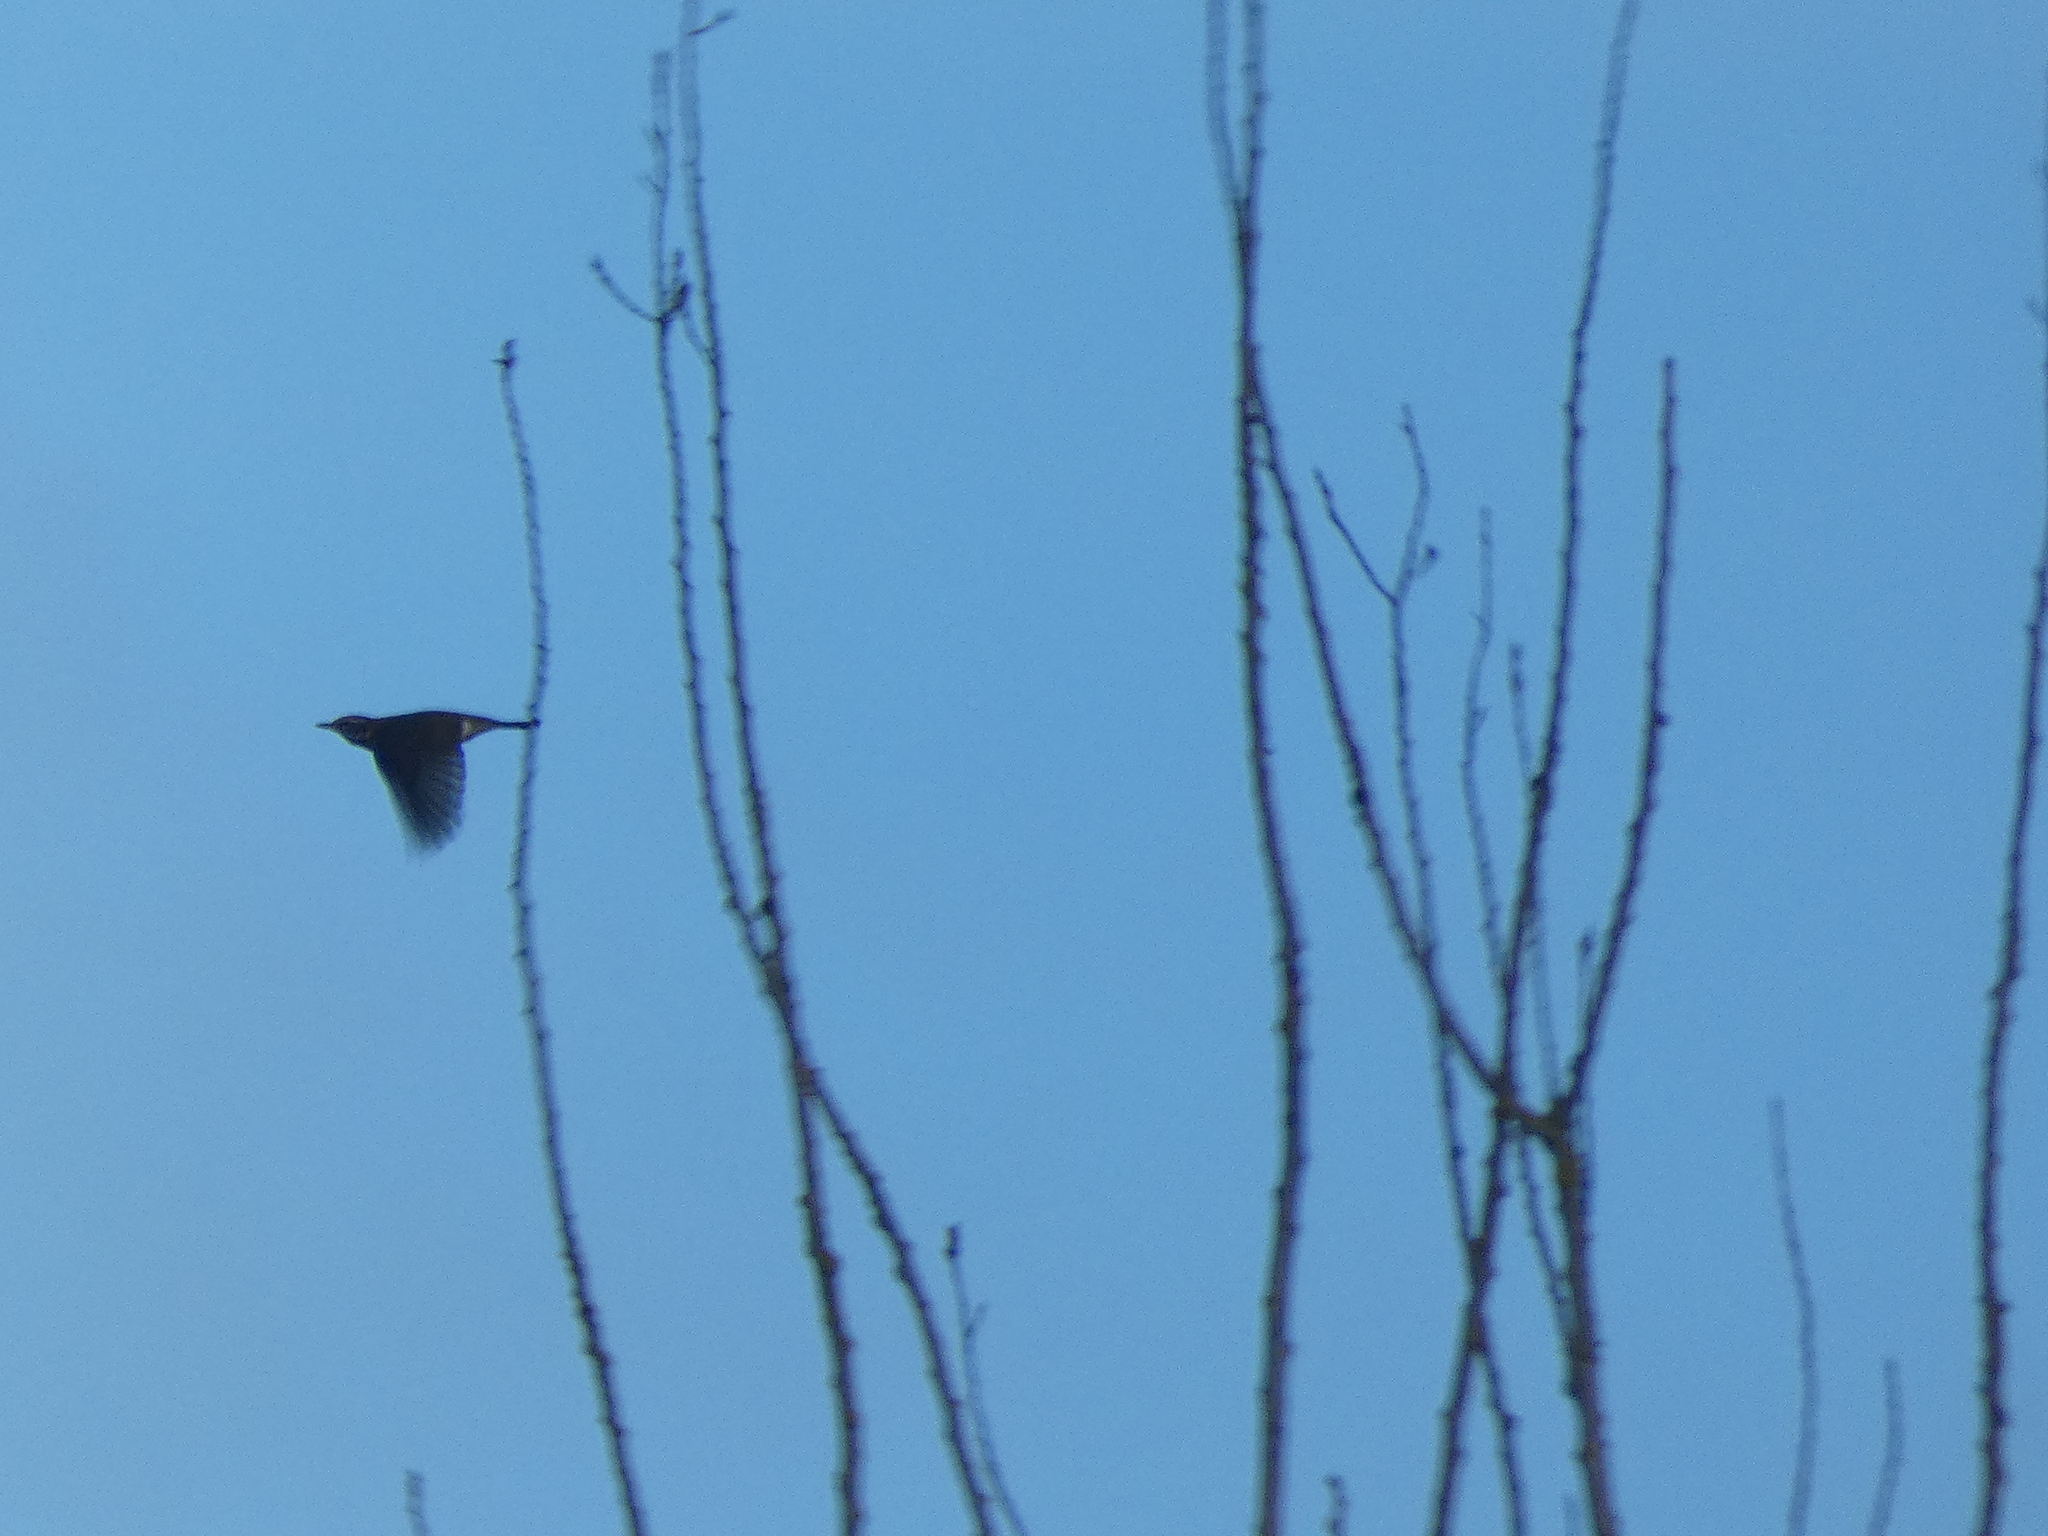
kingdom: Animalia
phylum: Chordata
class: Aves
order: Passeriformes
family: Turdidae
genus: Turdus
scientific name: Turdus iliacus
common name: Redwing
